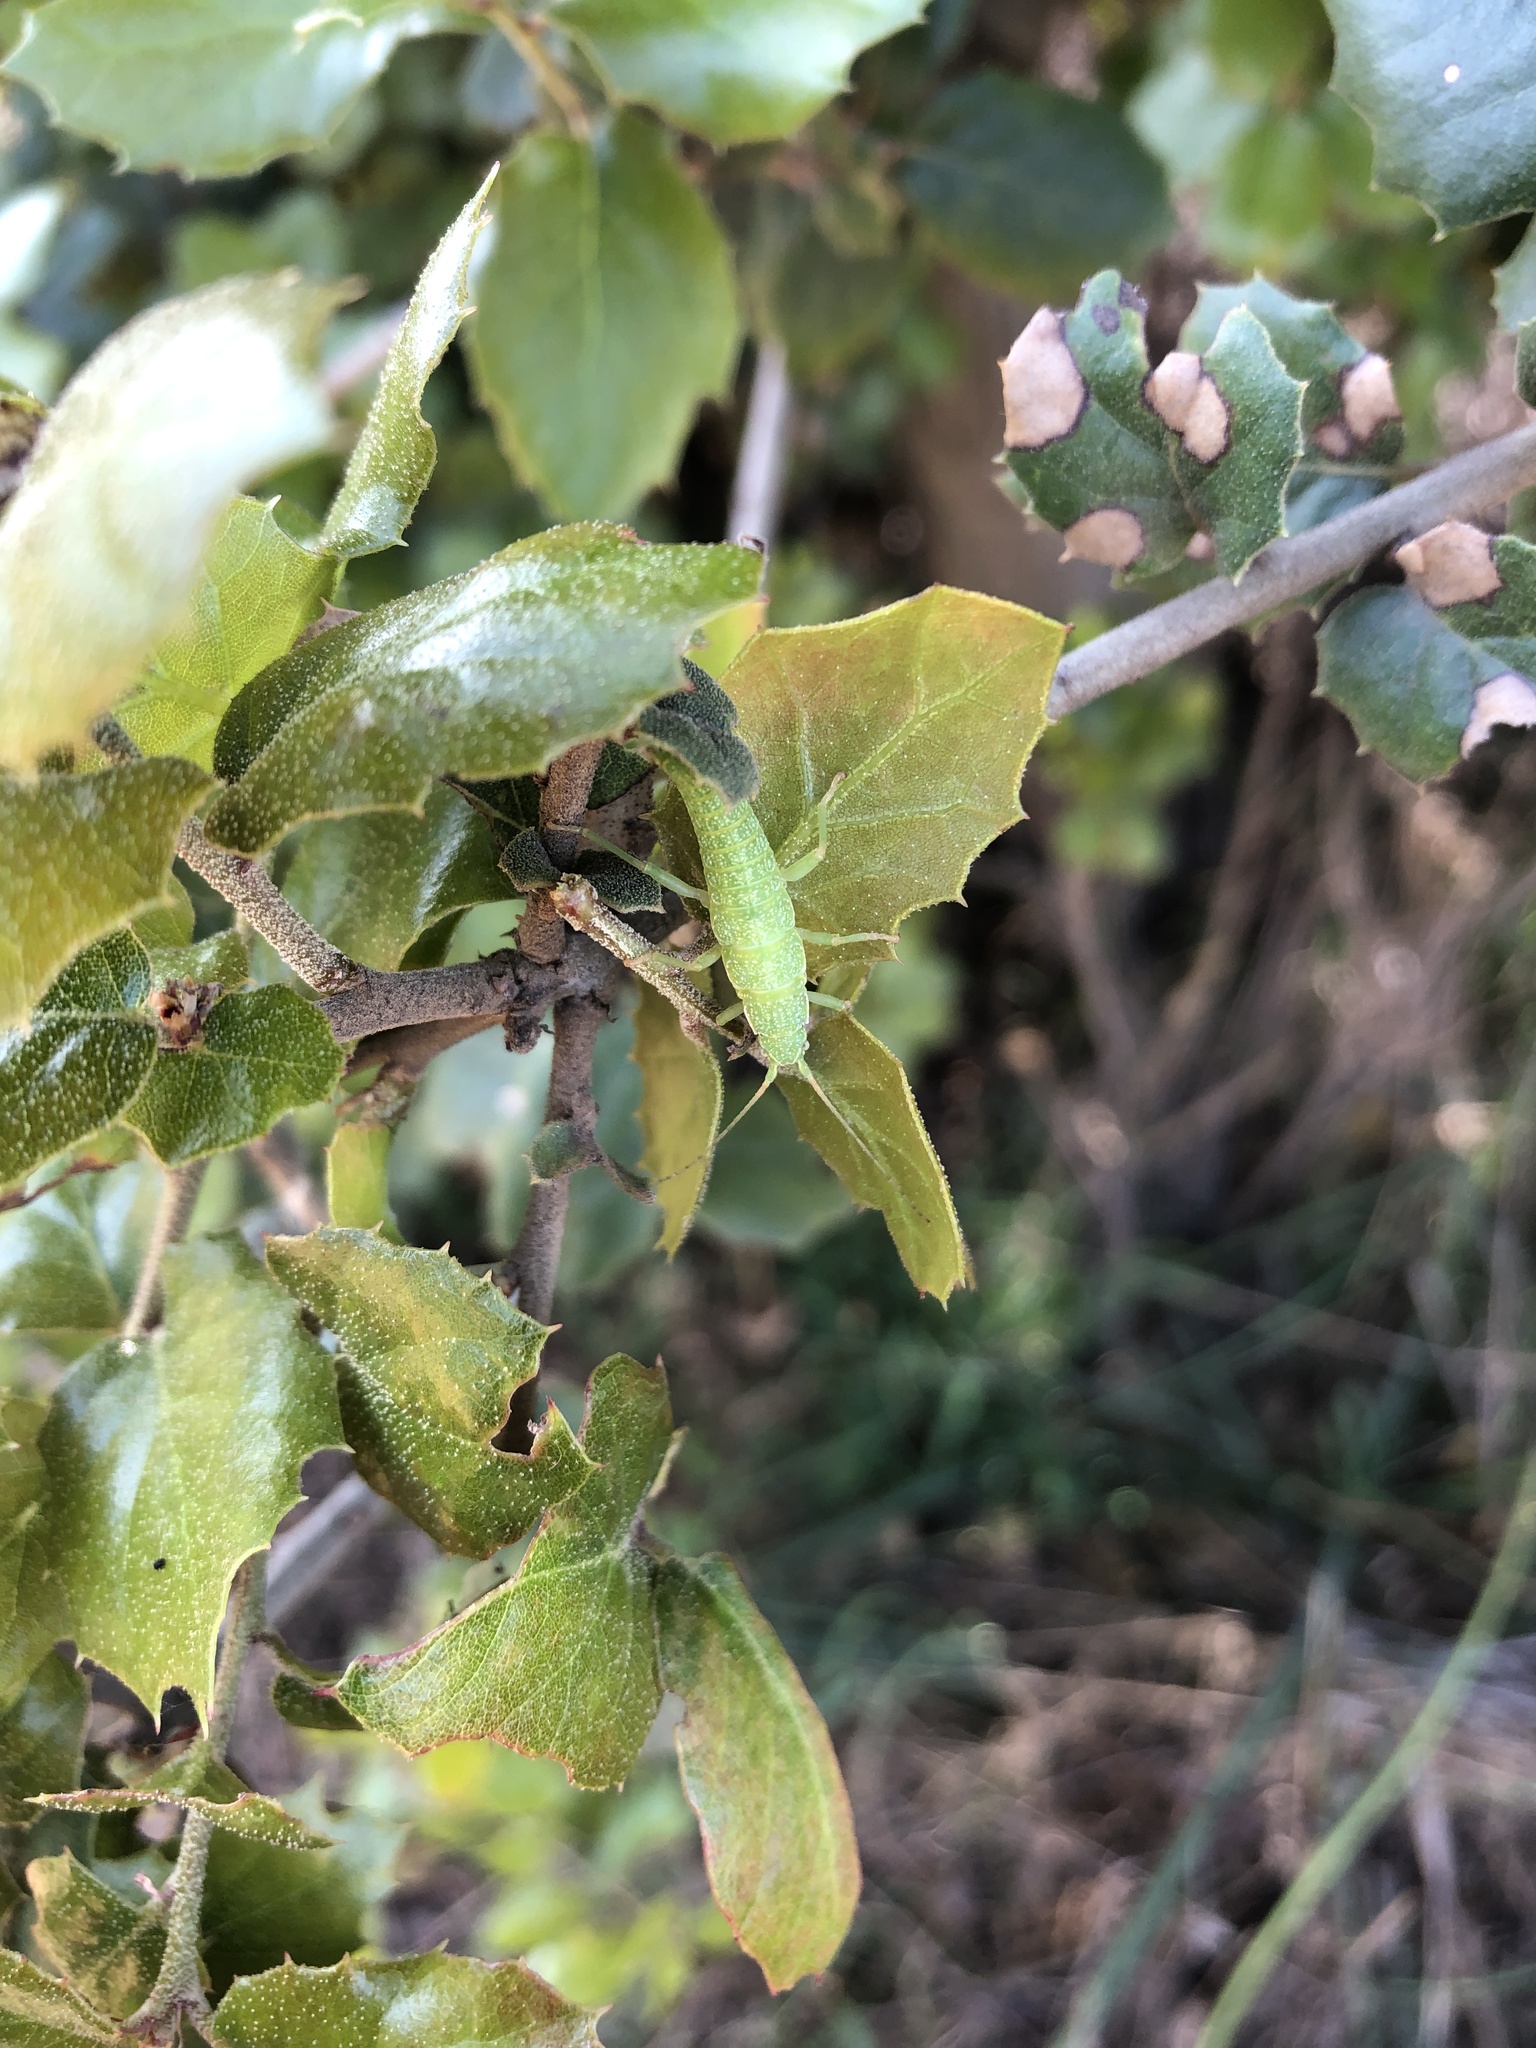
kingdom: Animalia
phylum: Arthropoda
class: Insecta
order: Phasmida
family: Timematidae
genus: Timema
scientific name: Timema californicum
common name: California timema
